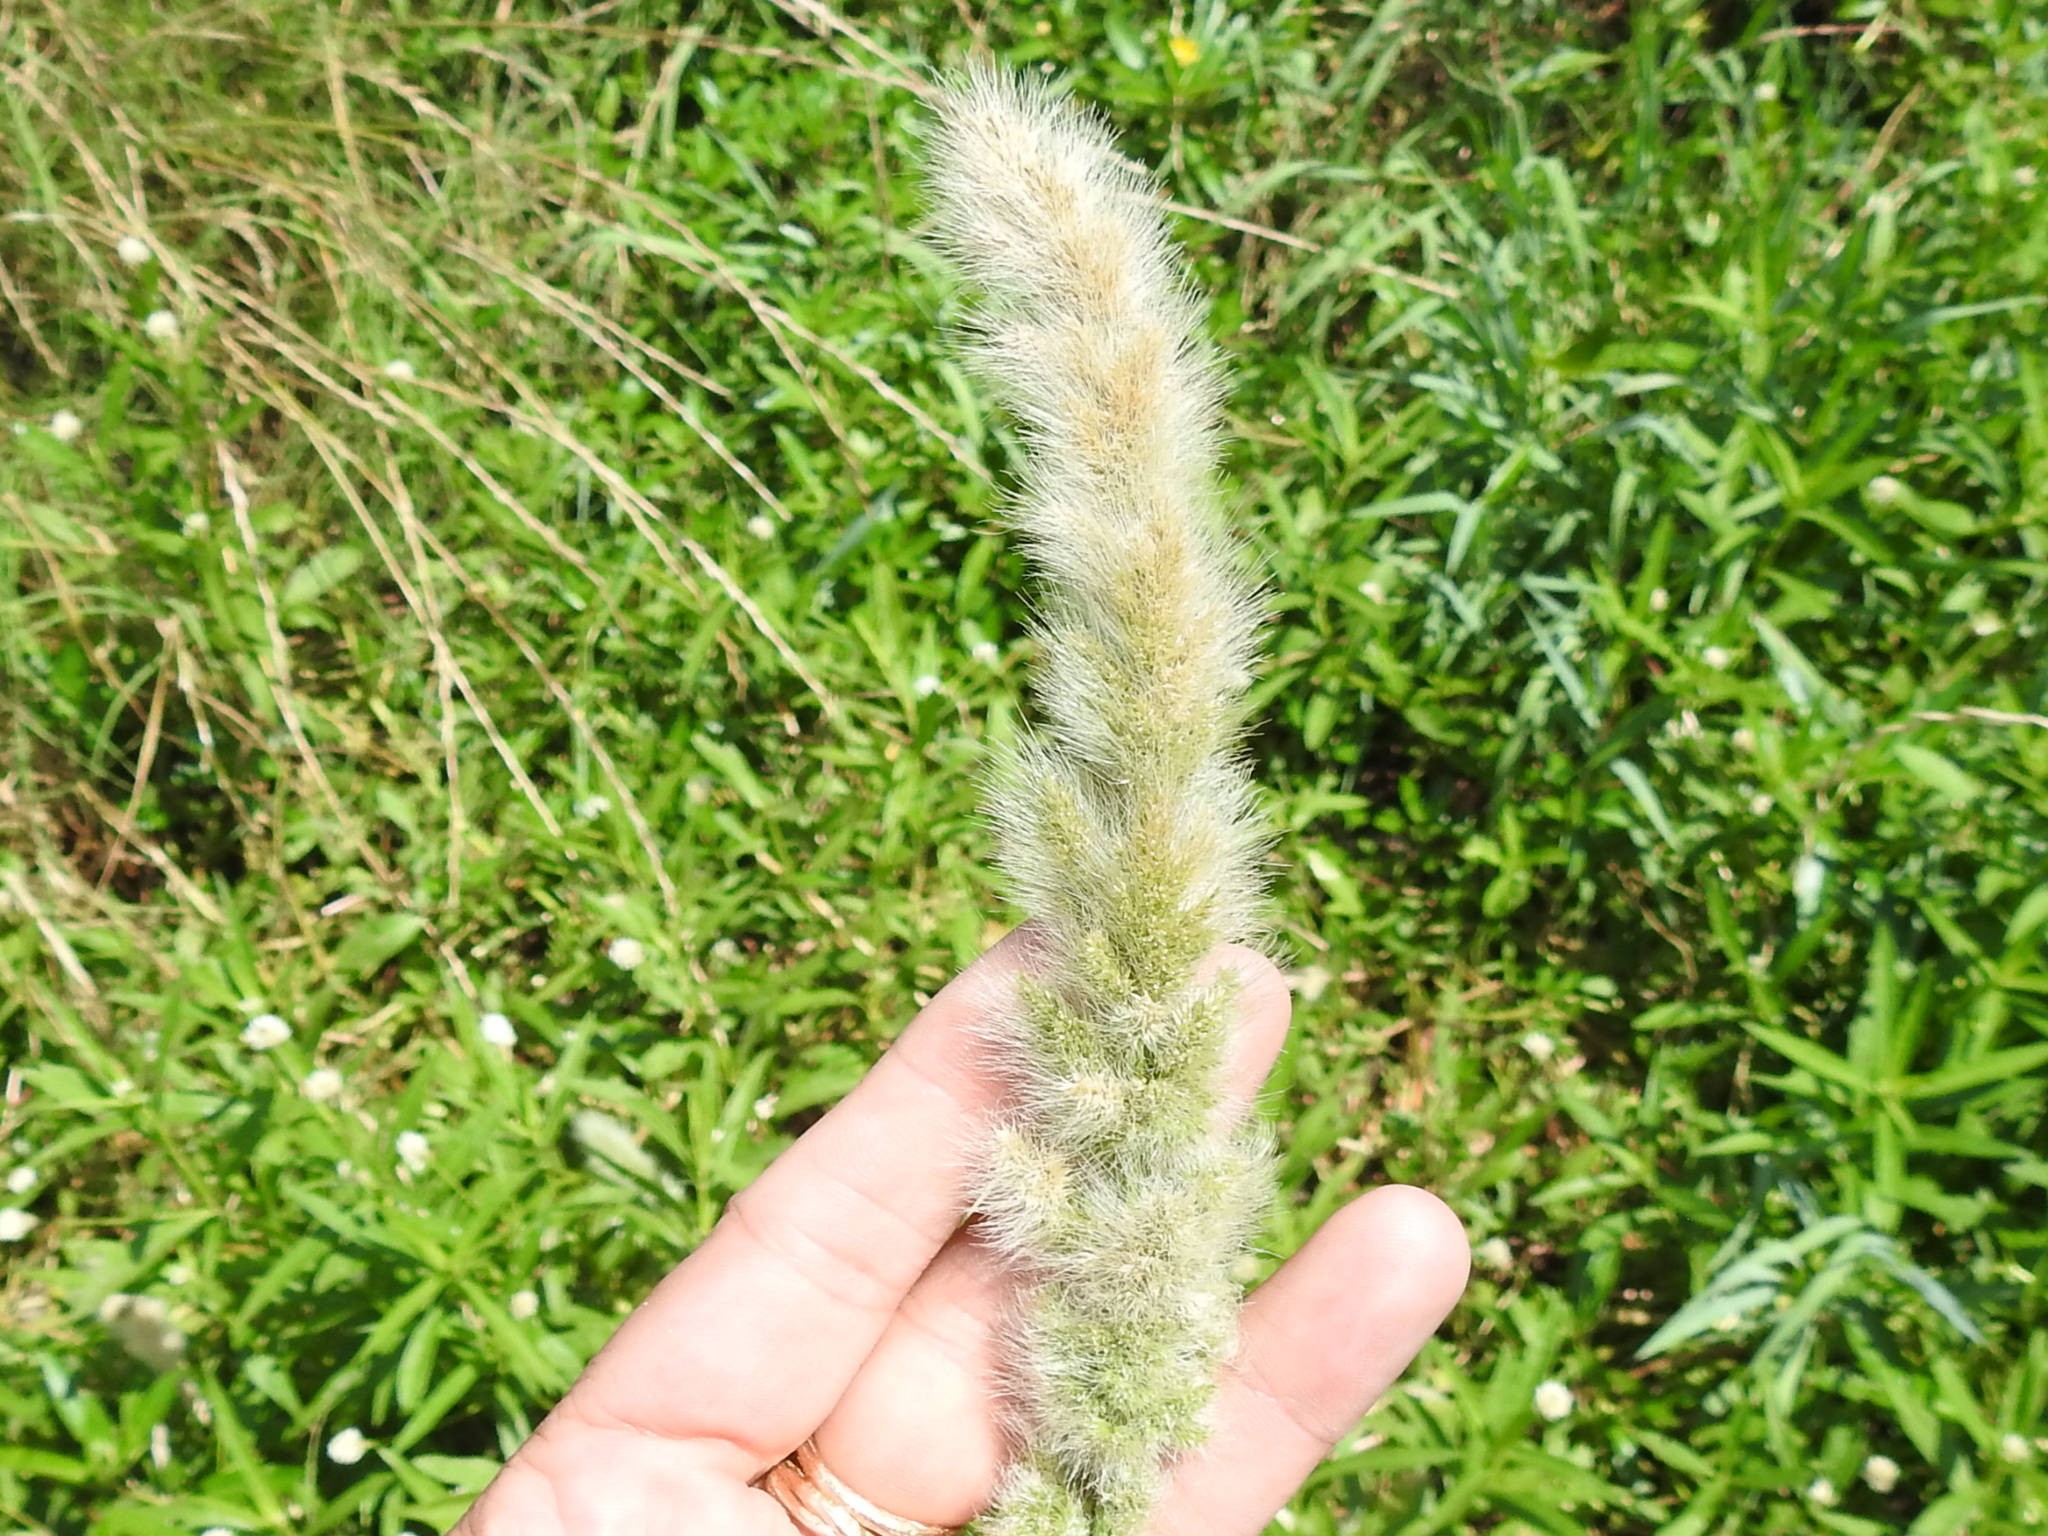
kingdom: Plantae
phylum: Tracheophyta
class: Liliopsida
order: Poales
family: Poaceae
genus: Polypogon
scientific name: Polypogon monspeliensis
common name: Annual rabbitsfoot grass
